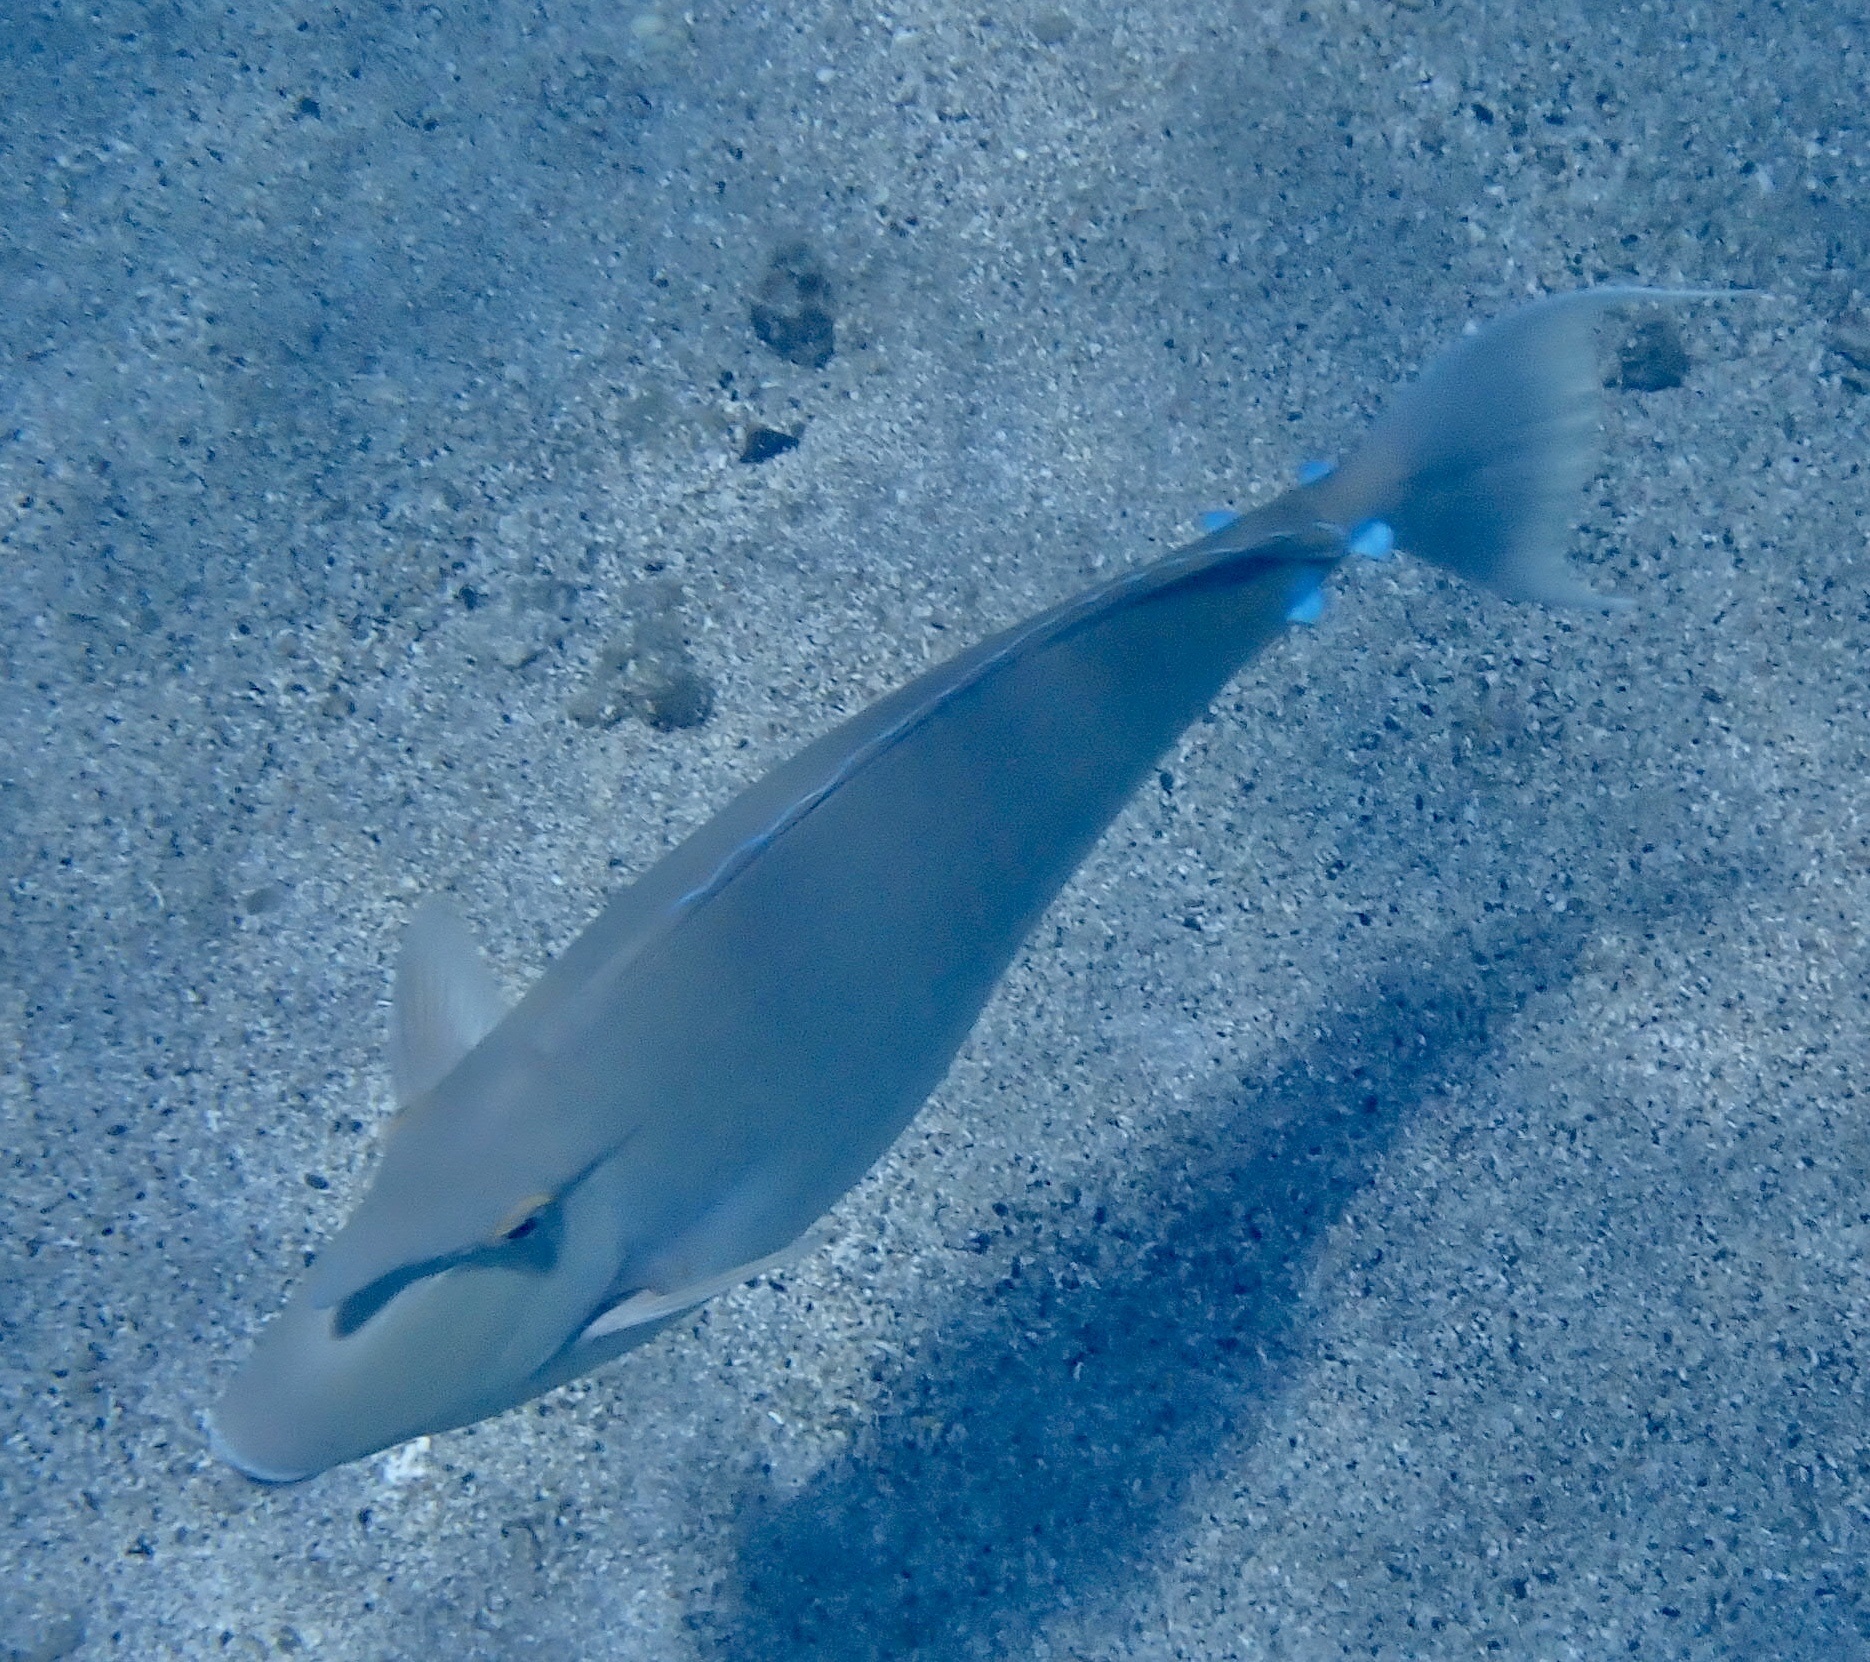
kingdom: Animalia
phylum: Chordata
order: Perciformes
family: Acanthuridae
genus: Naso
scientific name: Naso unicornis
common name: Bluespine unicornfish
